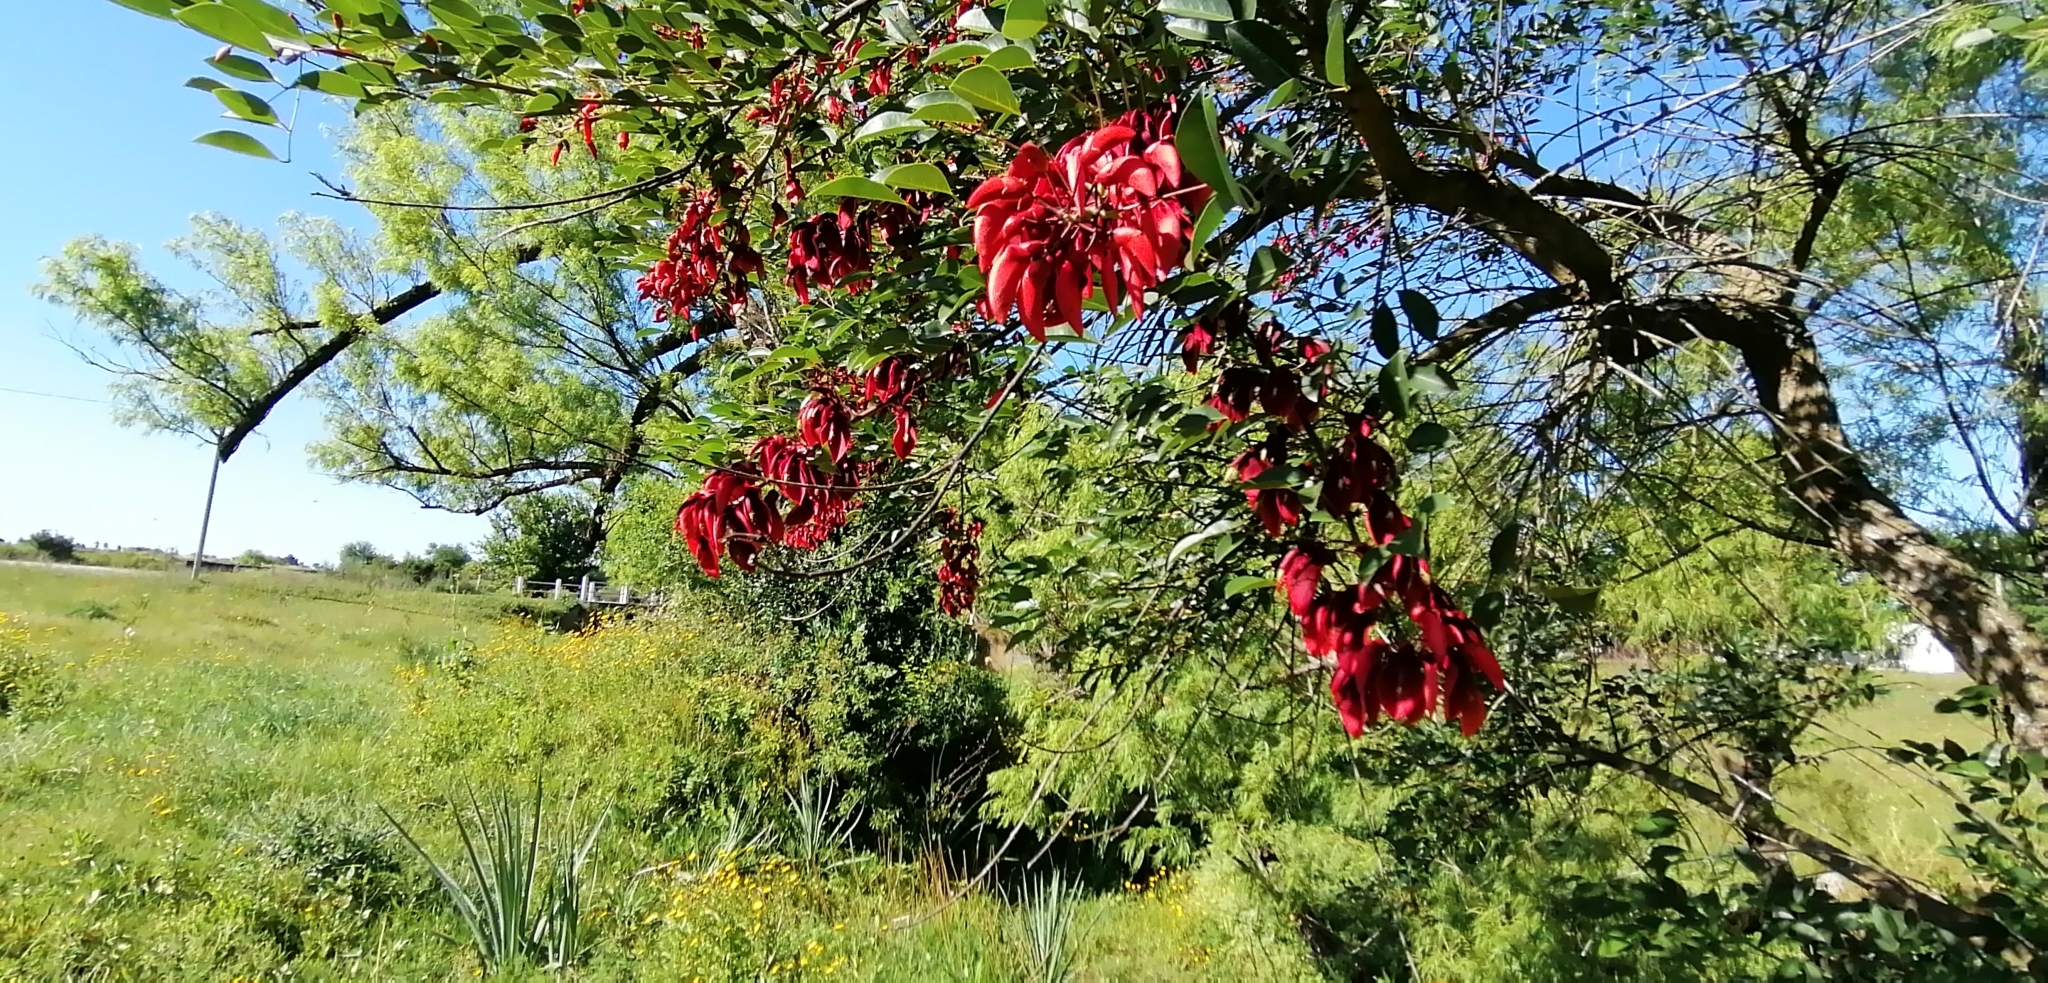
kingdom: Plantae
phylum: Tracheophyta
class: Magnoliopsida
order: Fabales
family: Fabaceae
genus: Erythrina
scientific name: Erythrina crista-galli
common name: Cockspur coral tree
